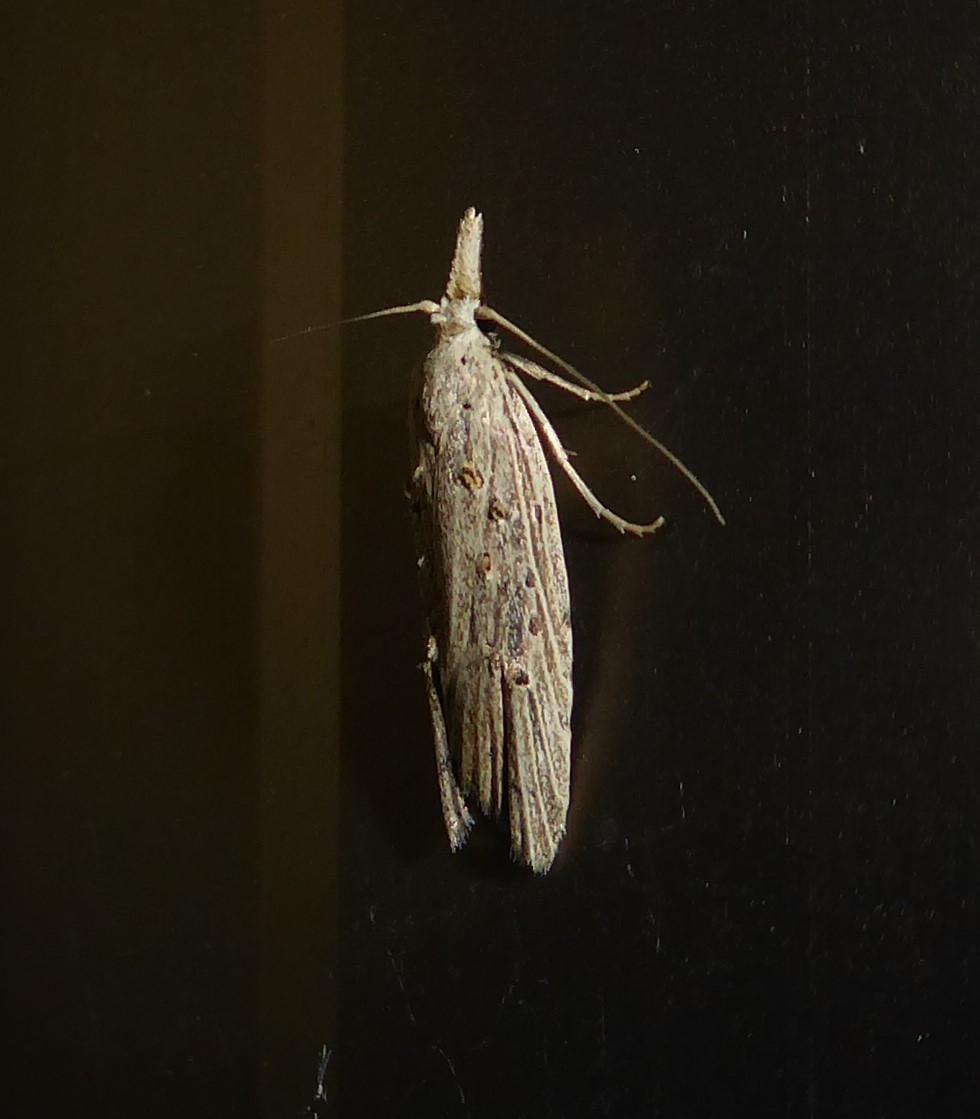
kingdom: Animalia
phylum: Arthropoda
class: Insecta
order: Lepidoptera
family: Carposinidae
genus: Carposina
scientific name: Carposina Heterocrossa exochana
